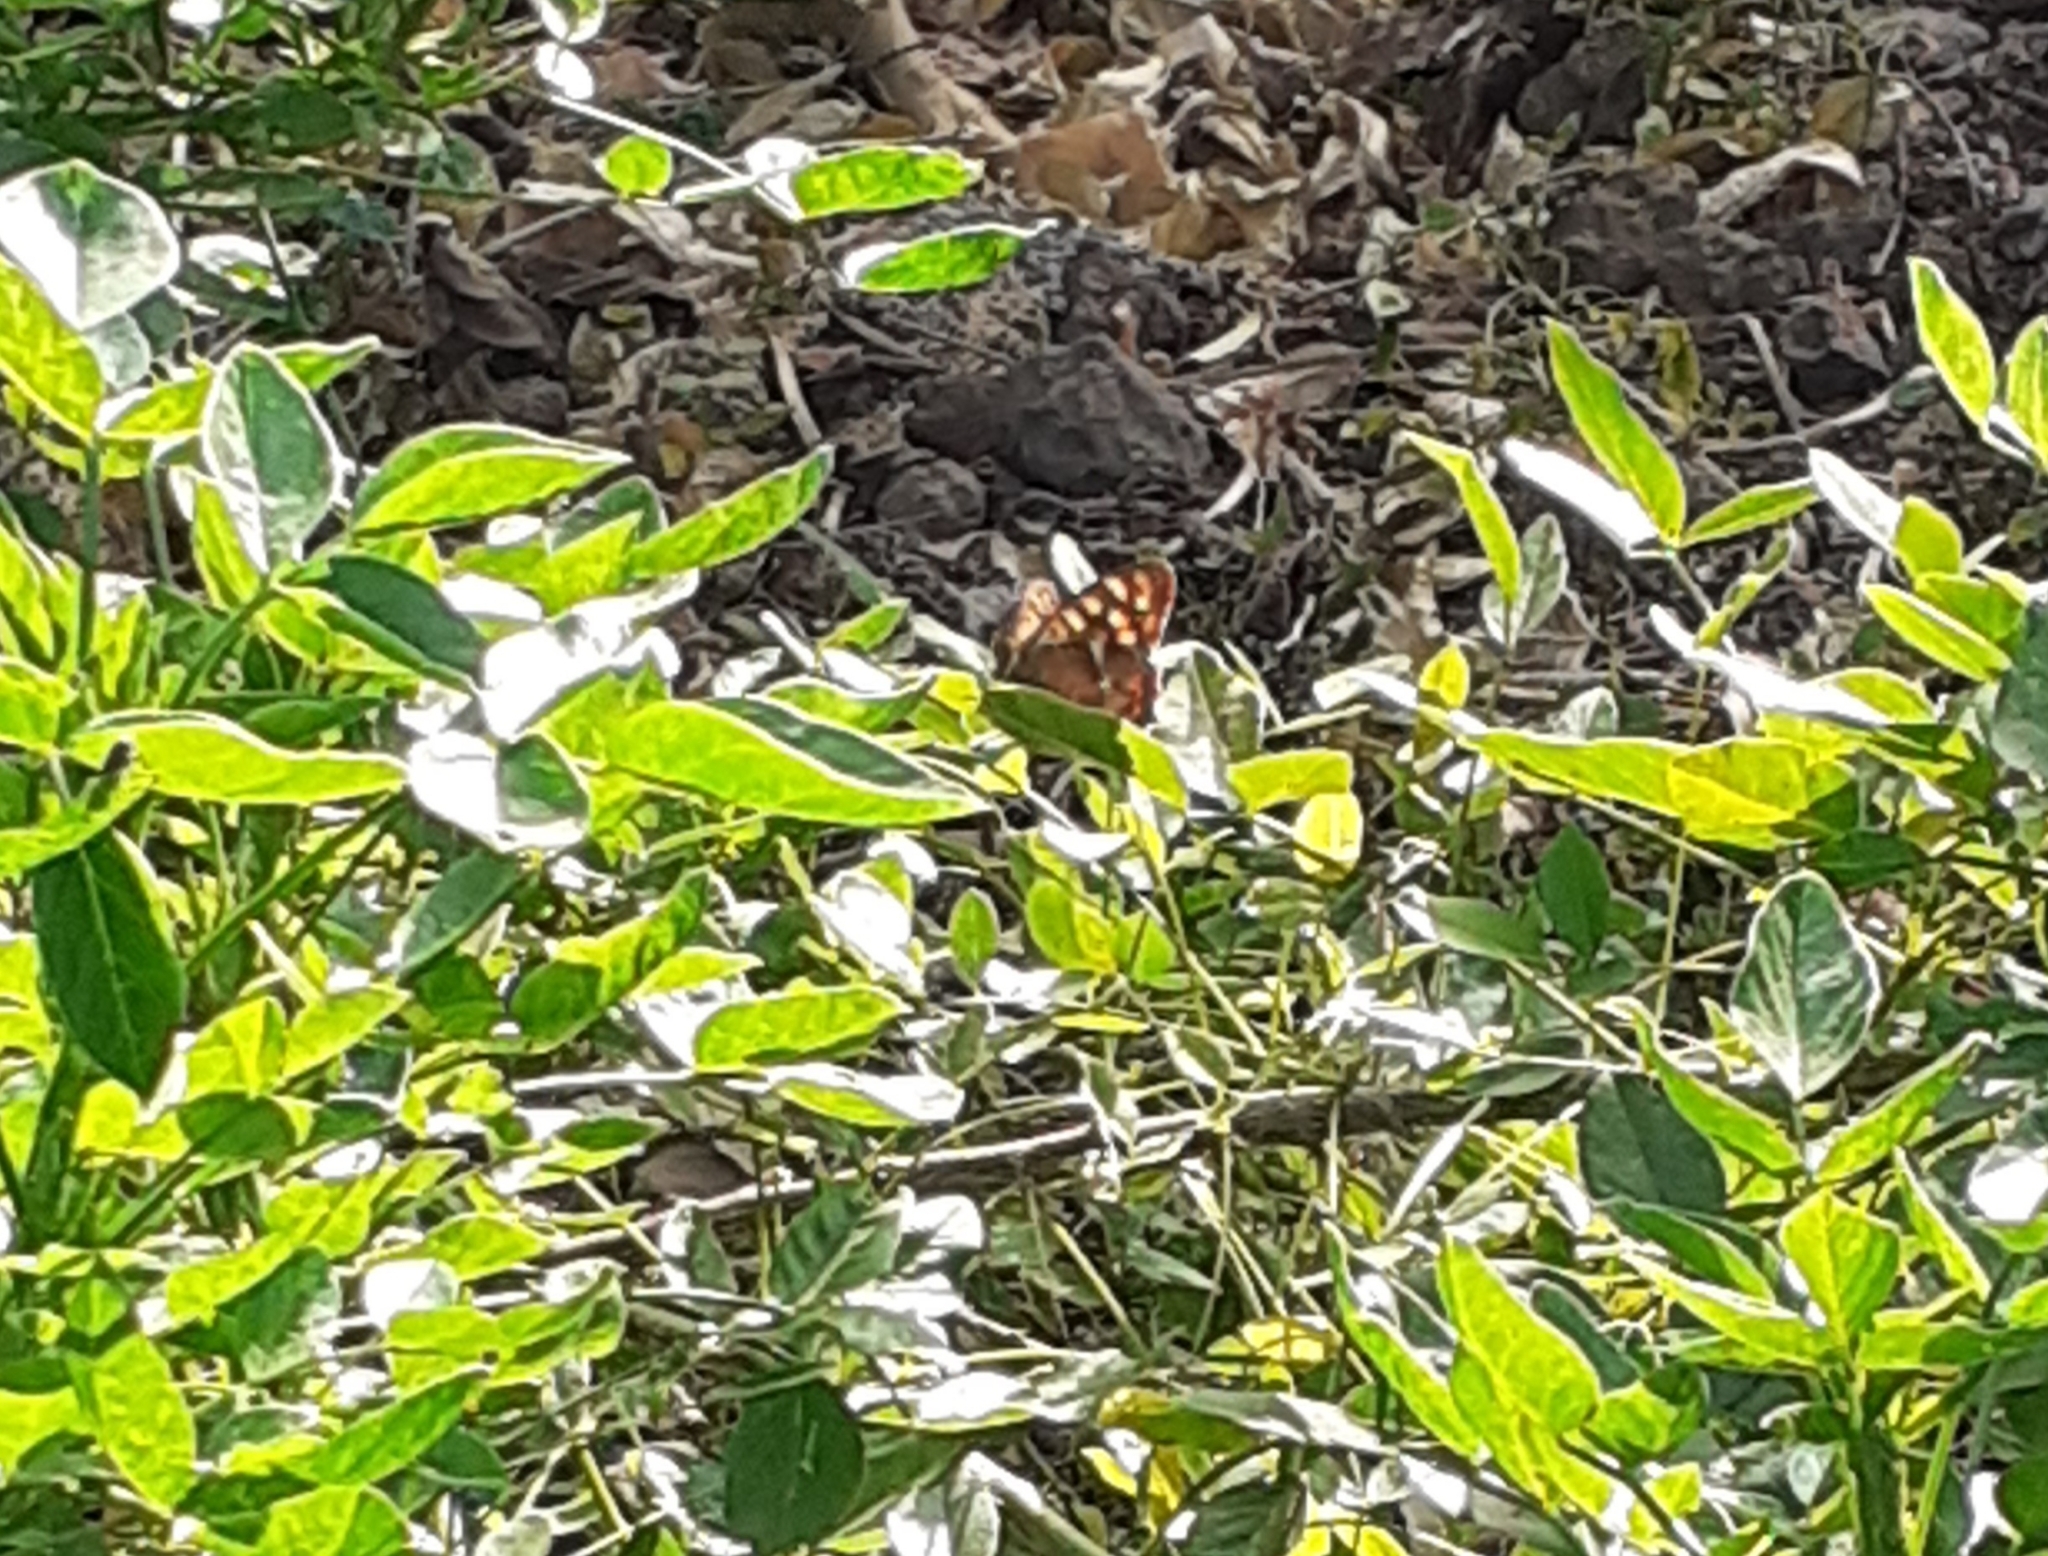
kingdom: Animalia
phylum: Arthropoda
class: Insecta
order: Lepidoptera
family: Nymphalidae
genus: Pararge
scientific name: Pararge aegeria
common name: Speckled wood
